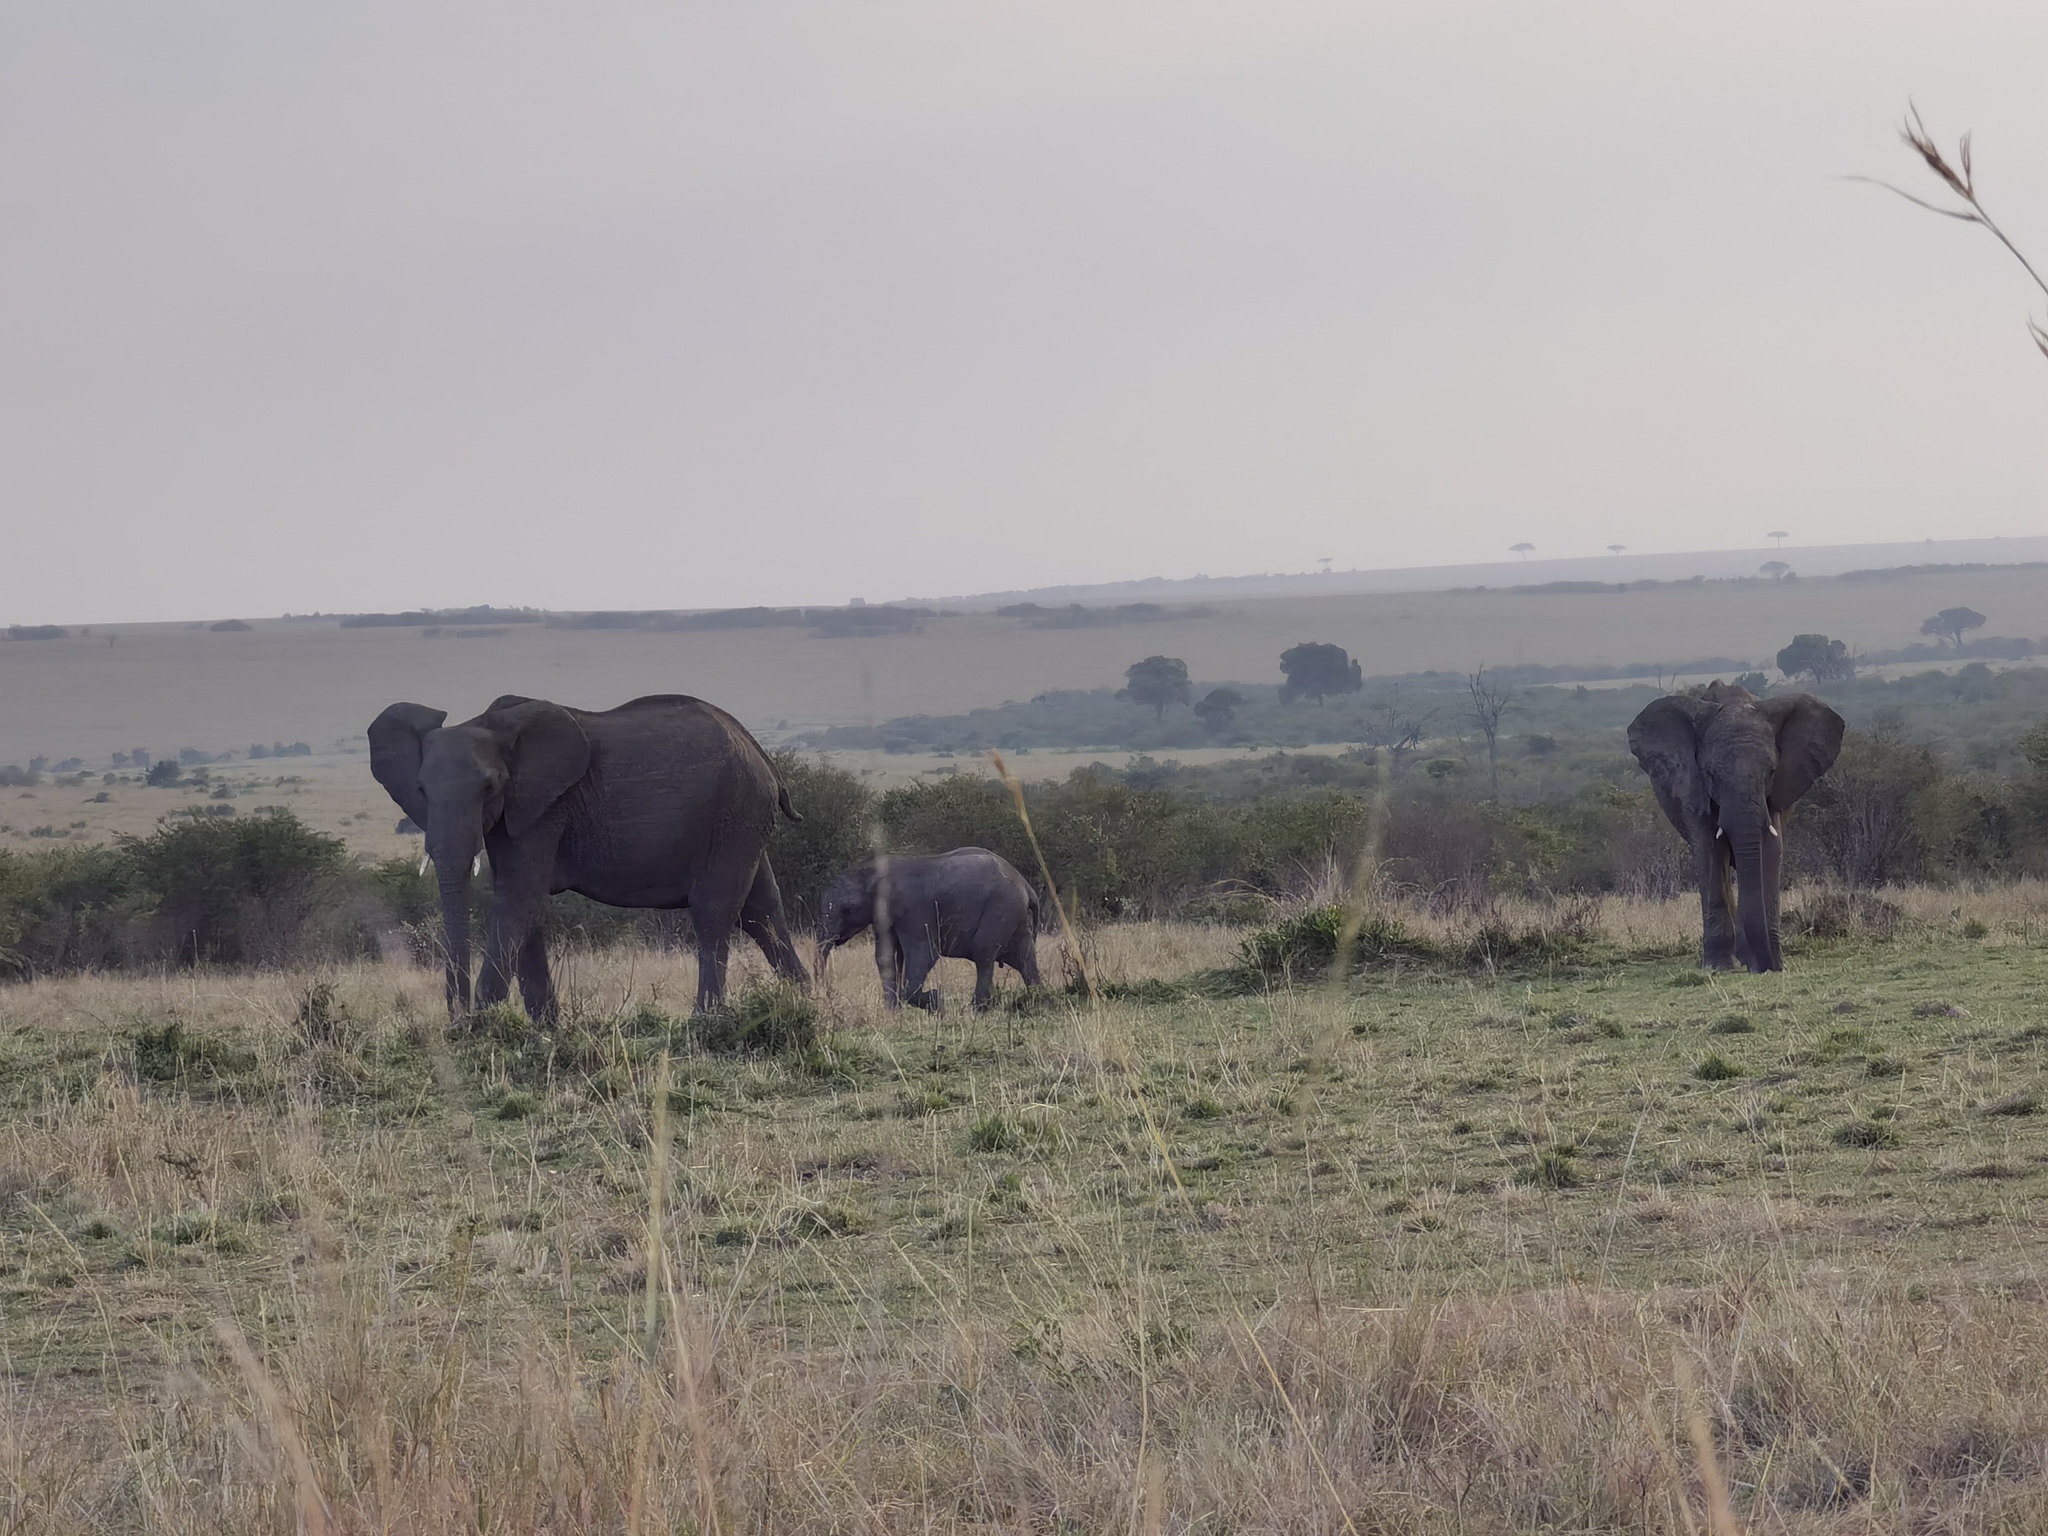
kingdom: Animalia
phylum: Chordata
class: Mammalia
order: Proboscidea
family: Elephantidae
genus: Loxodonta
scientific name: Loxodonta africana
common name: African elephant
